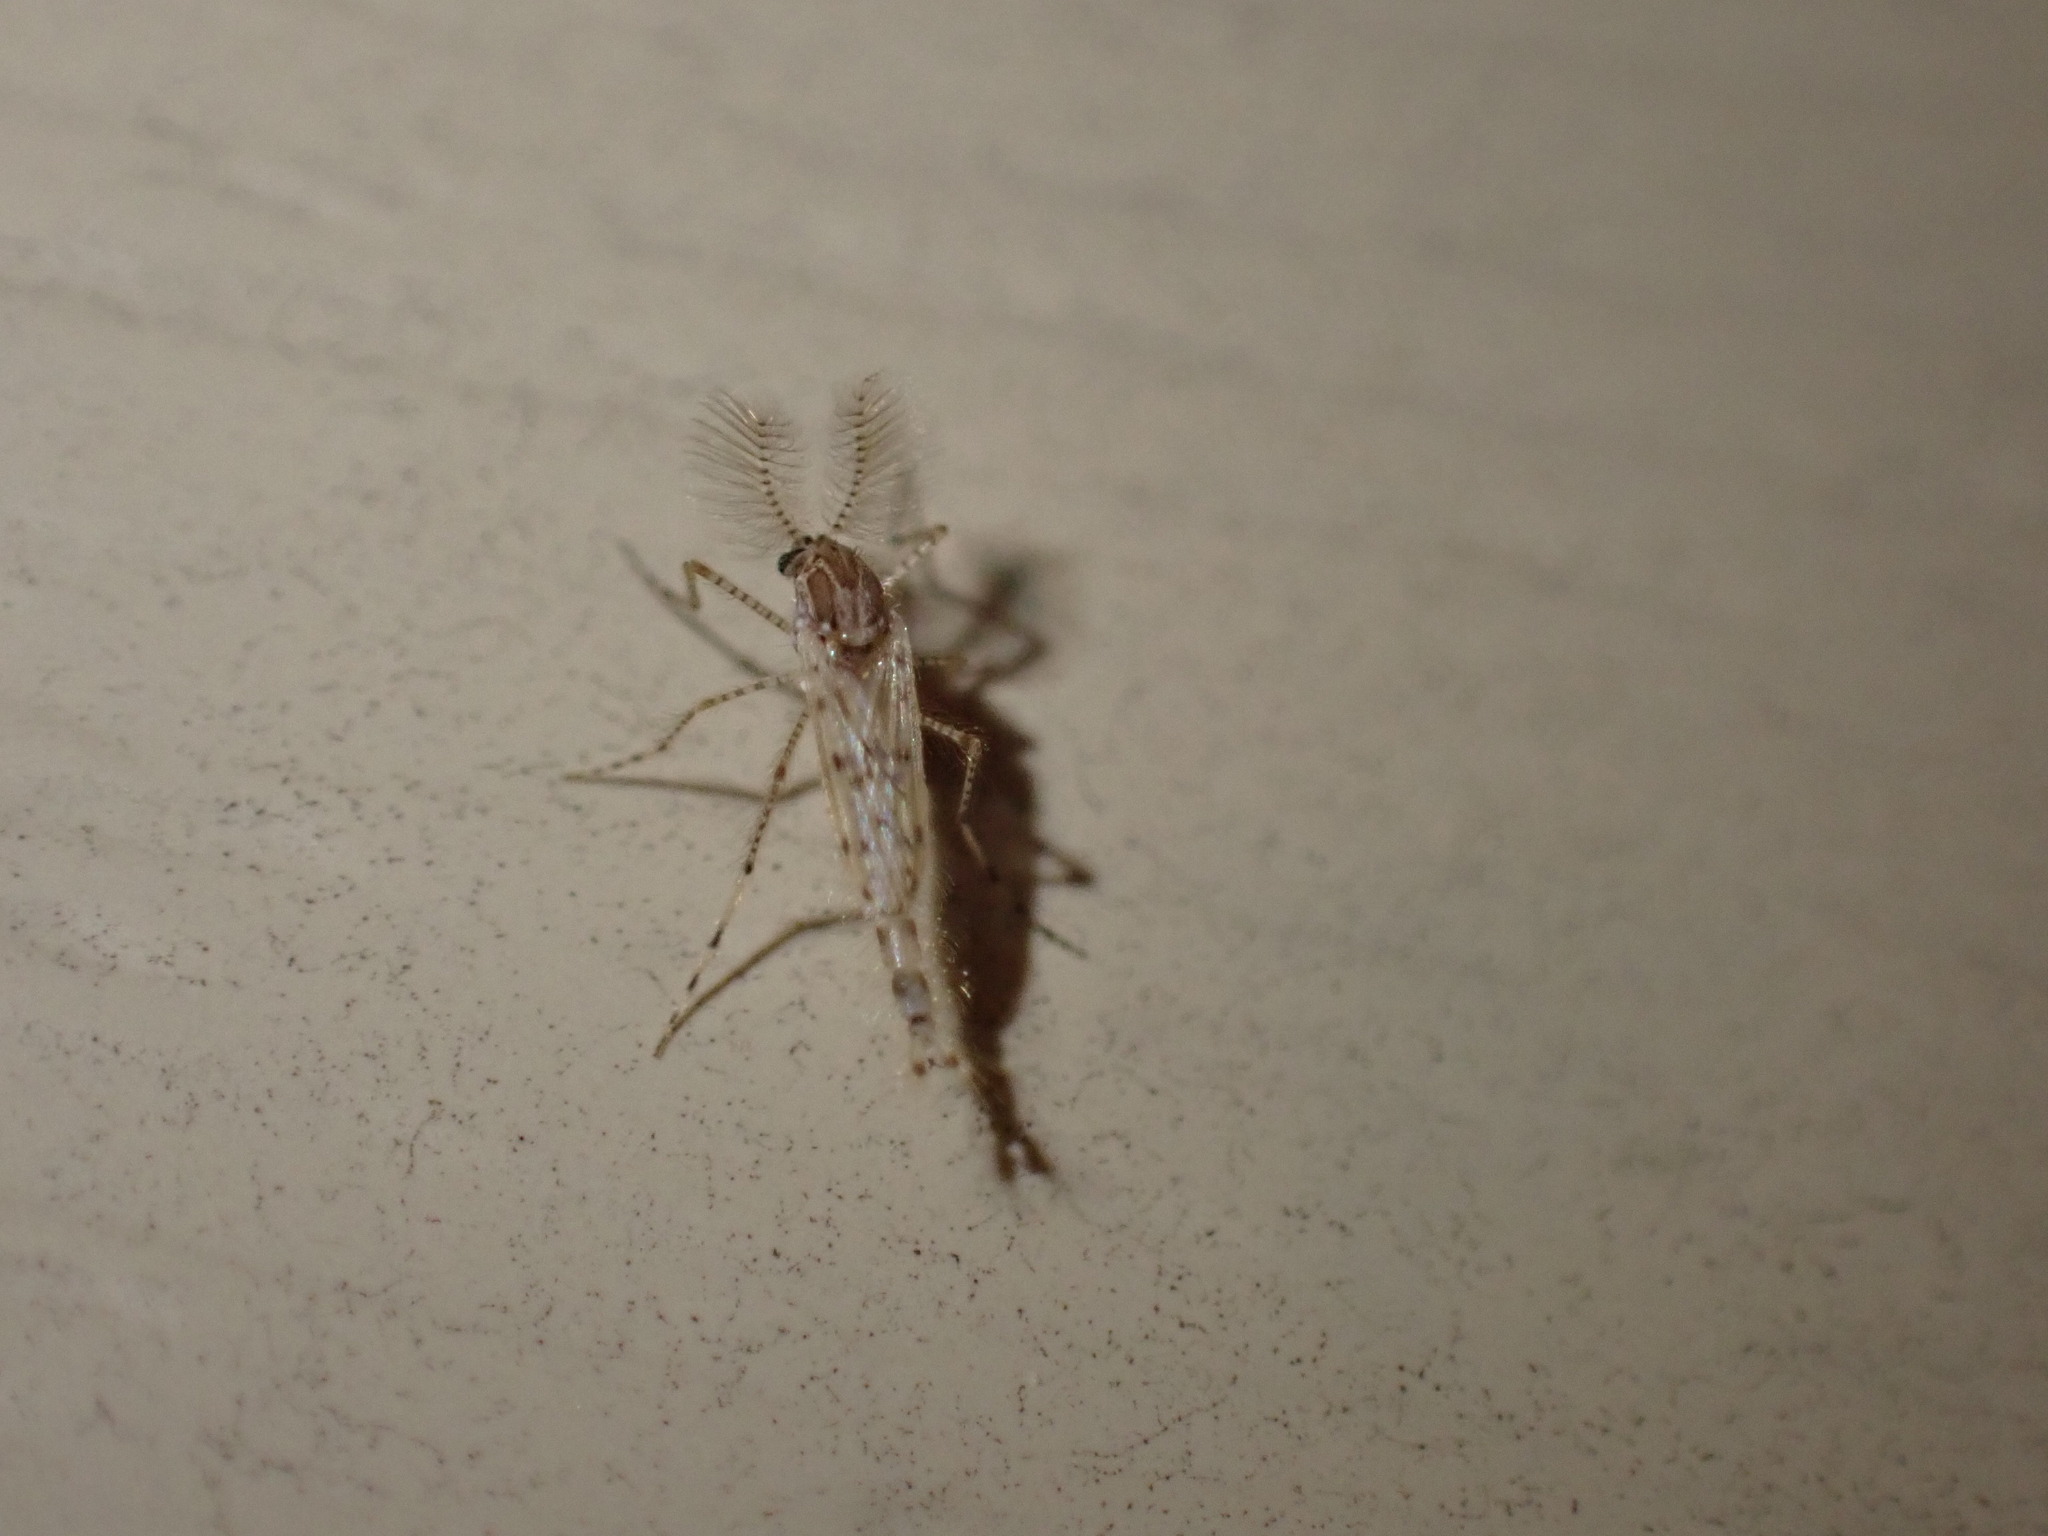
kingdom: Animalia
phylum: Arthropoda
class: Insecta
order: Diptera
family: Chaoboridae
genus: Chaoborus
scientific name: Chaoborus punctipennis
